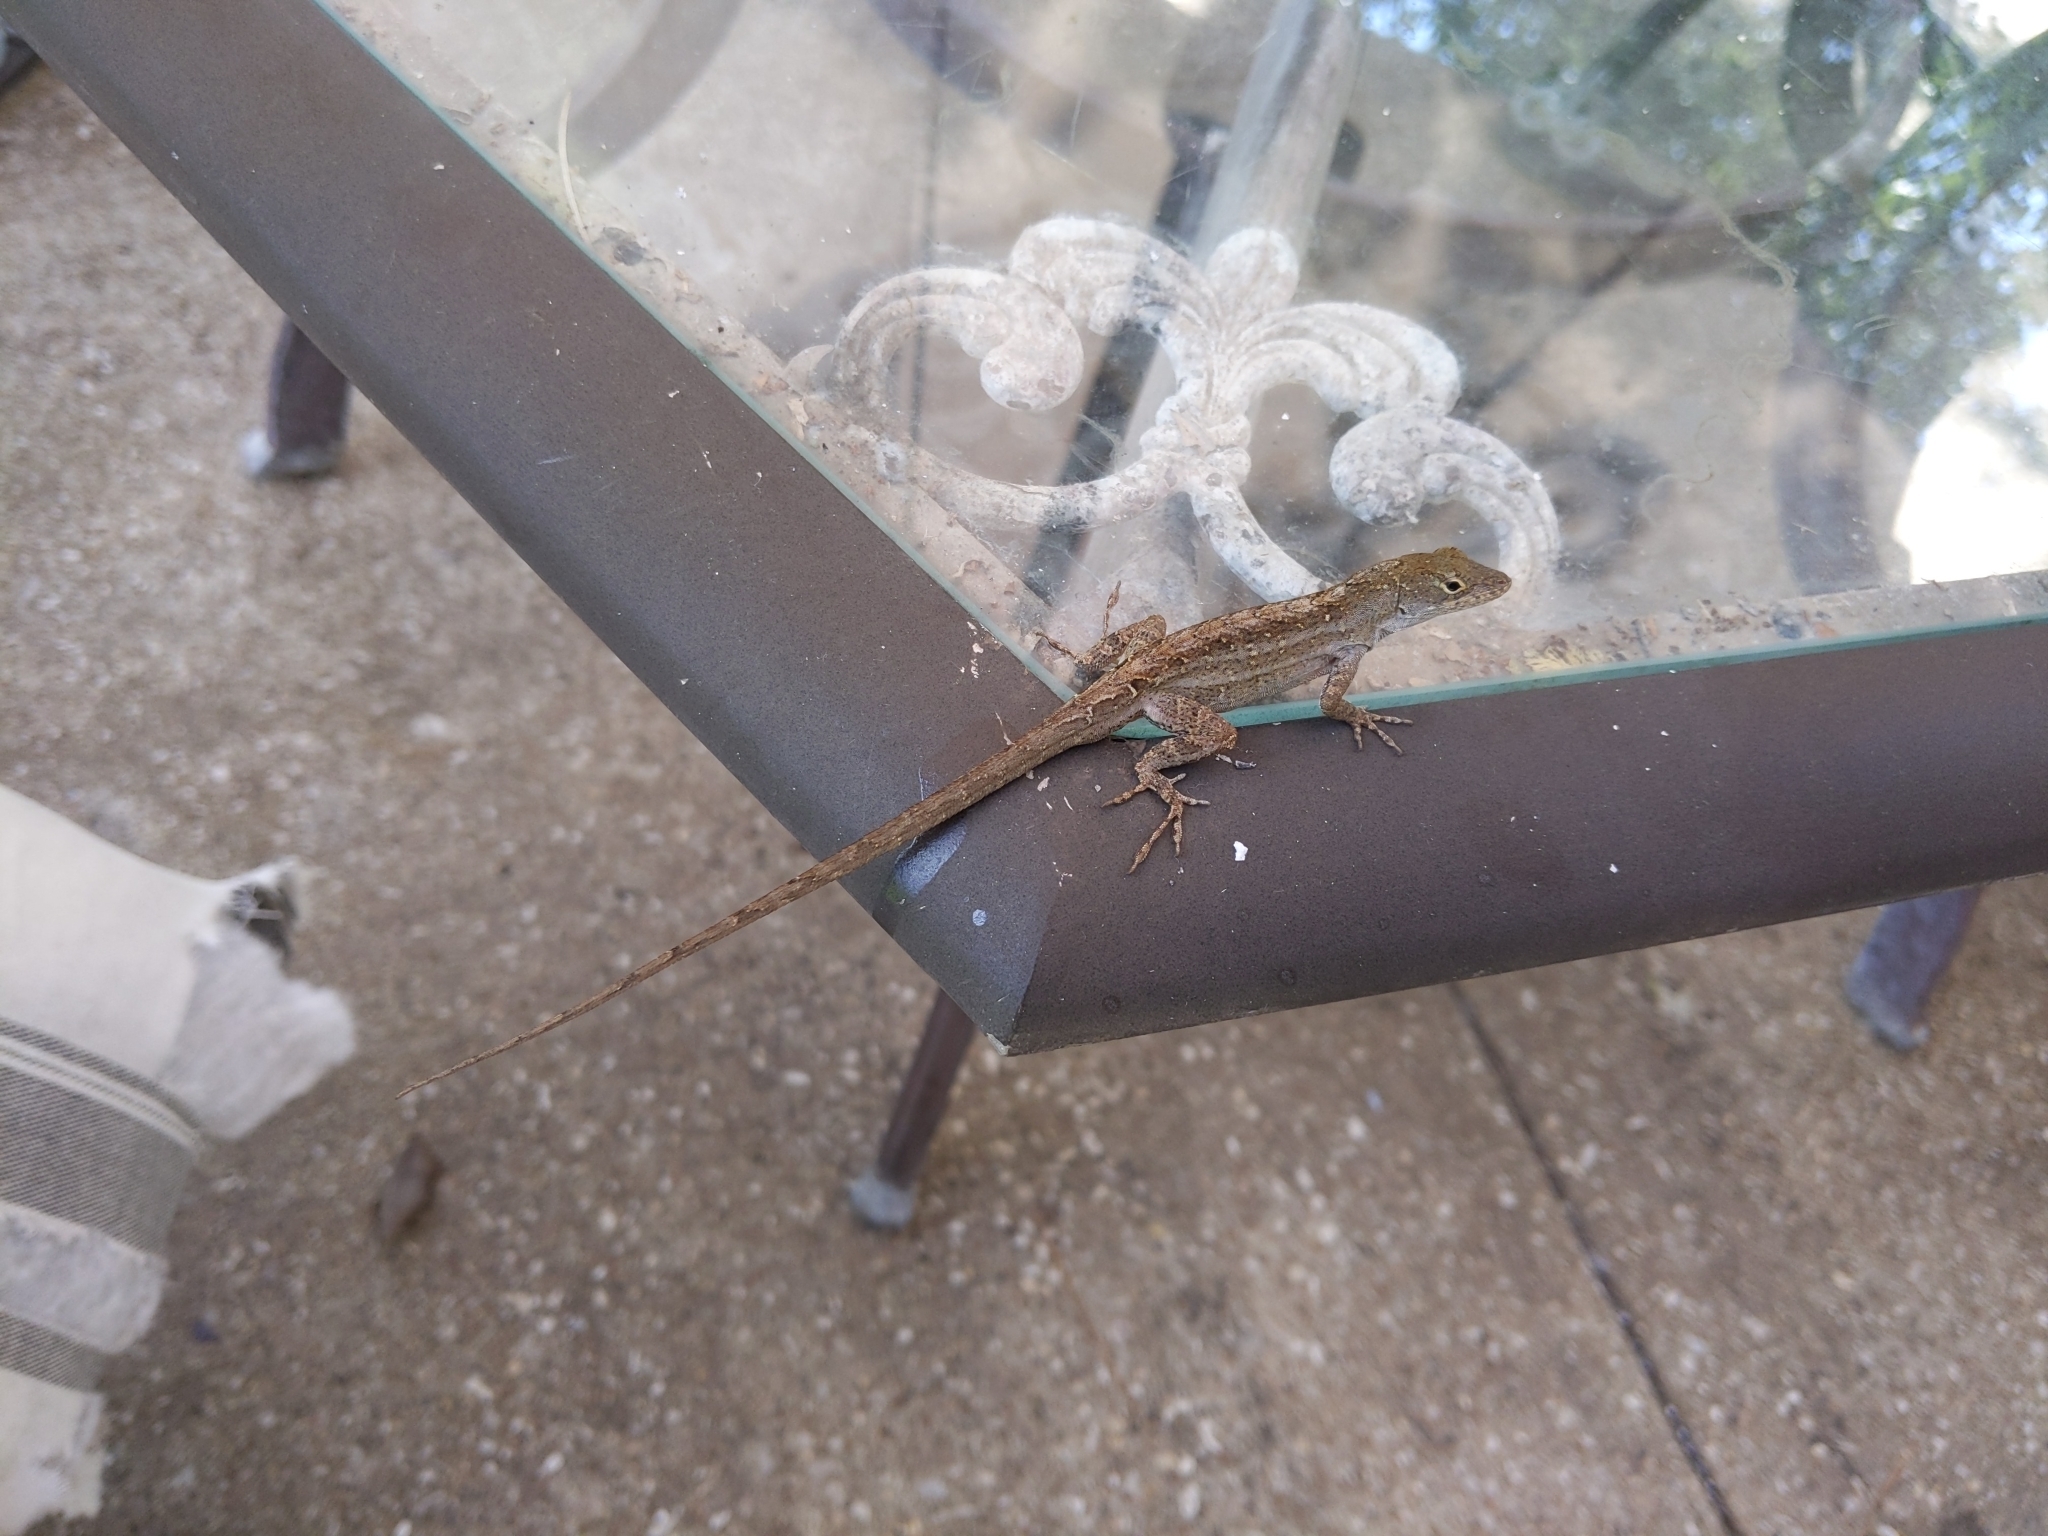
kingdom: Animalia
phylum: Chordata
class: Squamata
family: Dactyloidae
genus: Anolis
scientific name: Anolis sagrei
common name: Brown anole
